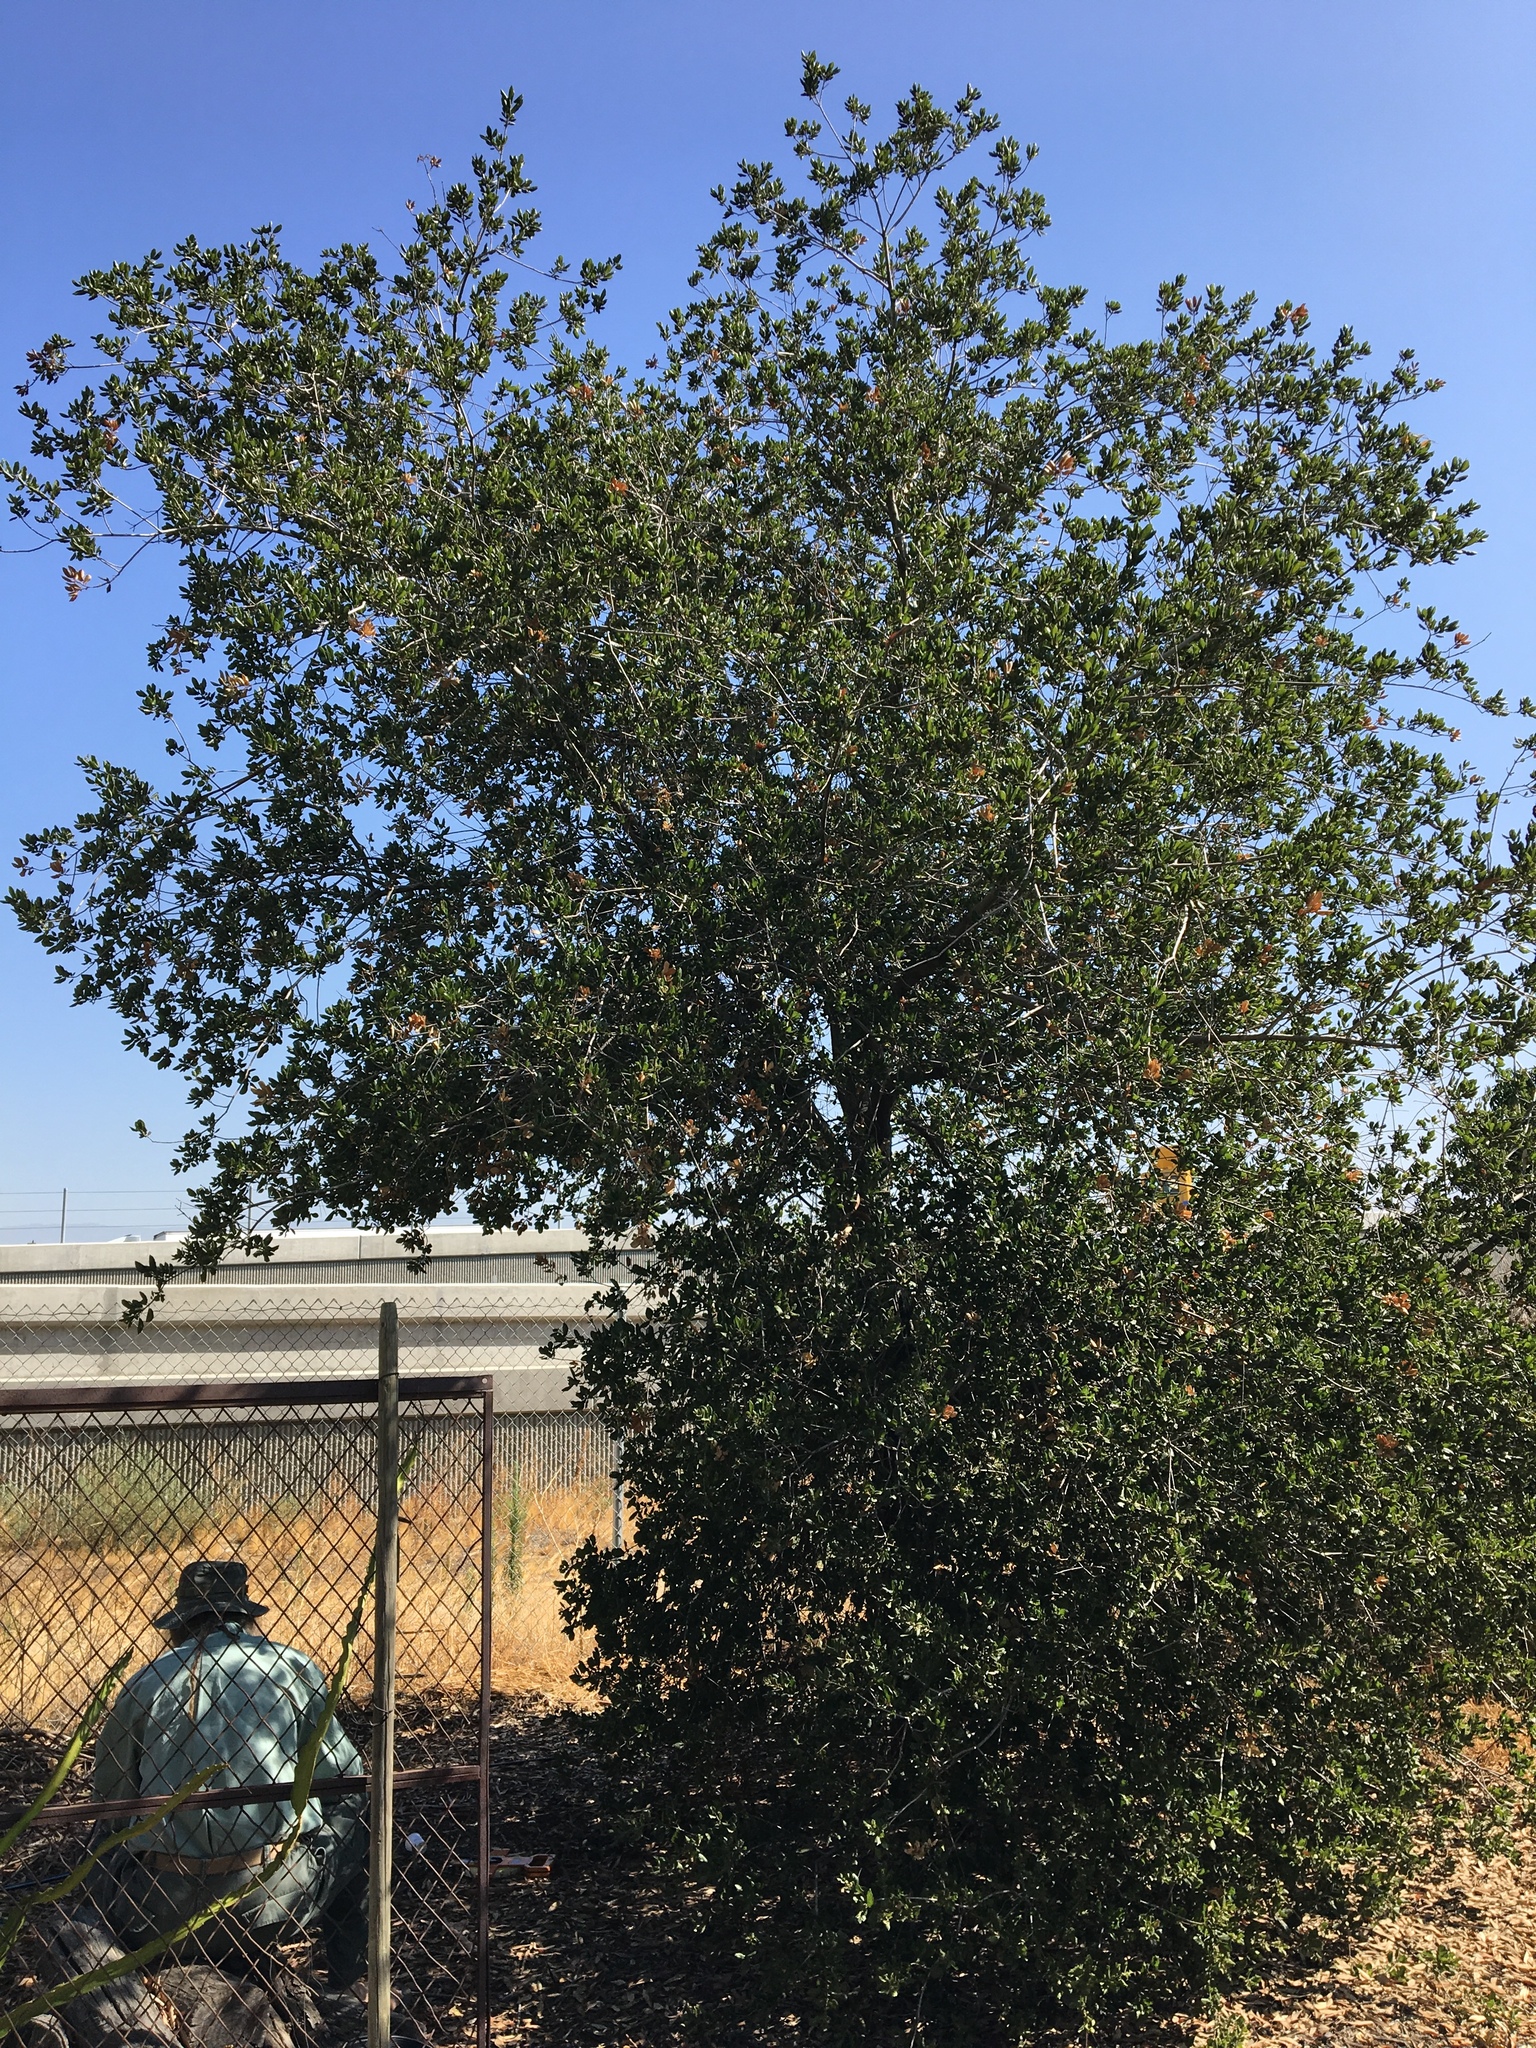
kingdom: Plantae
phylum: Tracheophyta
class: Magnoliopsida
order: Fagales
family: Fagaceae
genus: Quercus
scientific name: Quercus agrifolia
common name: California live oak
